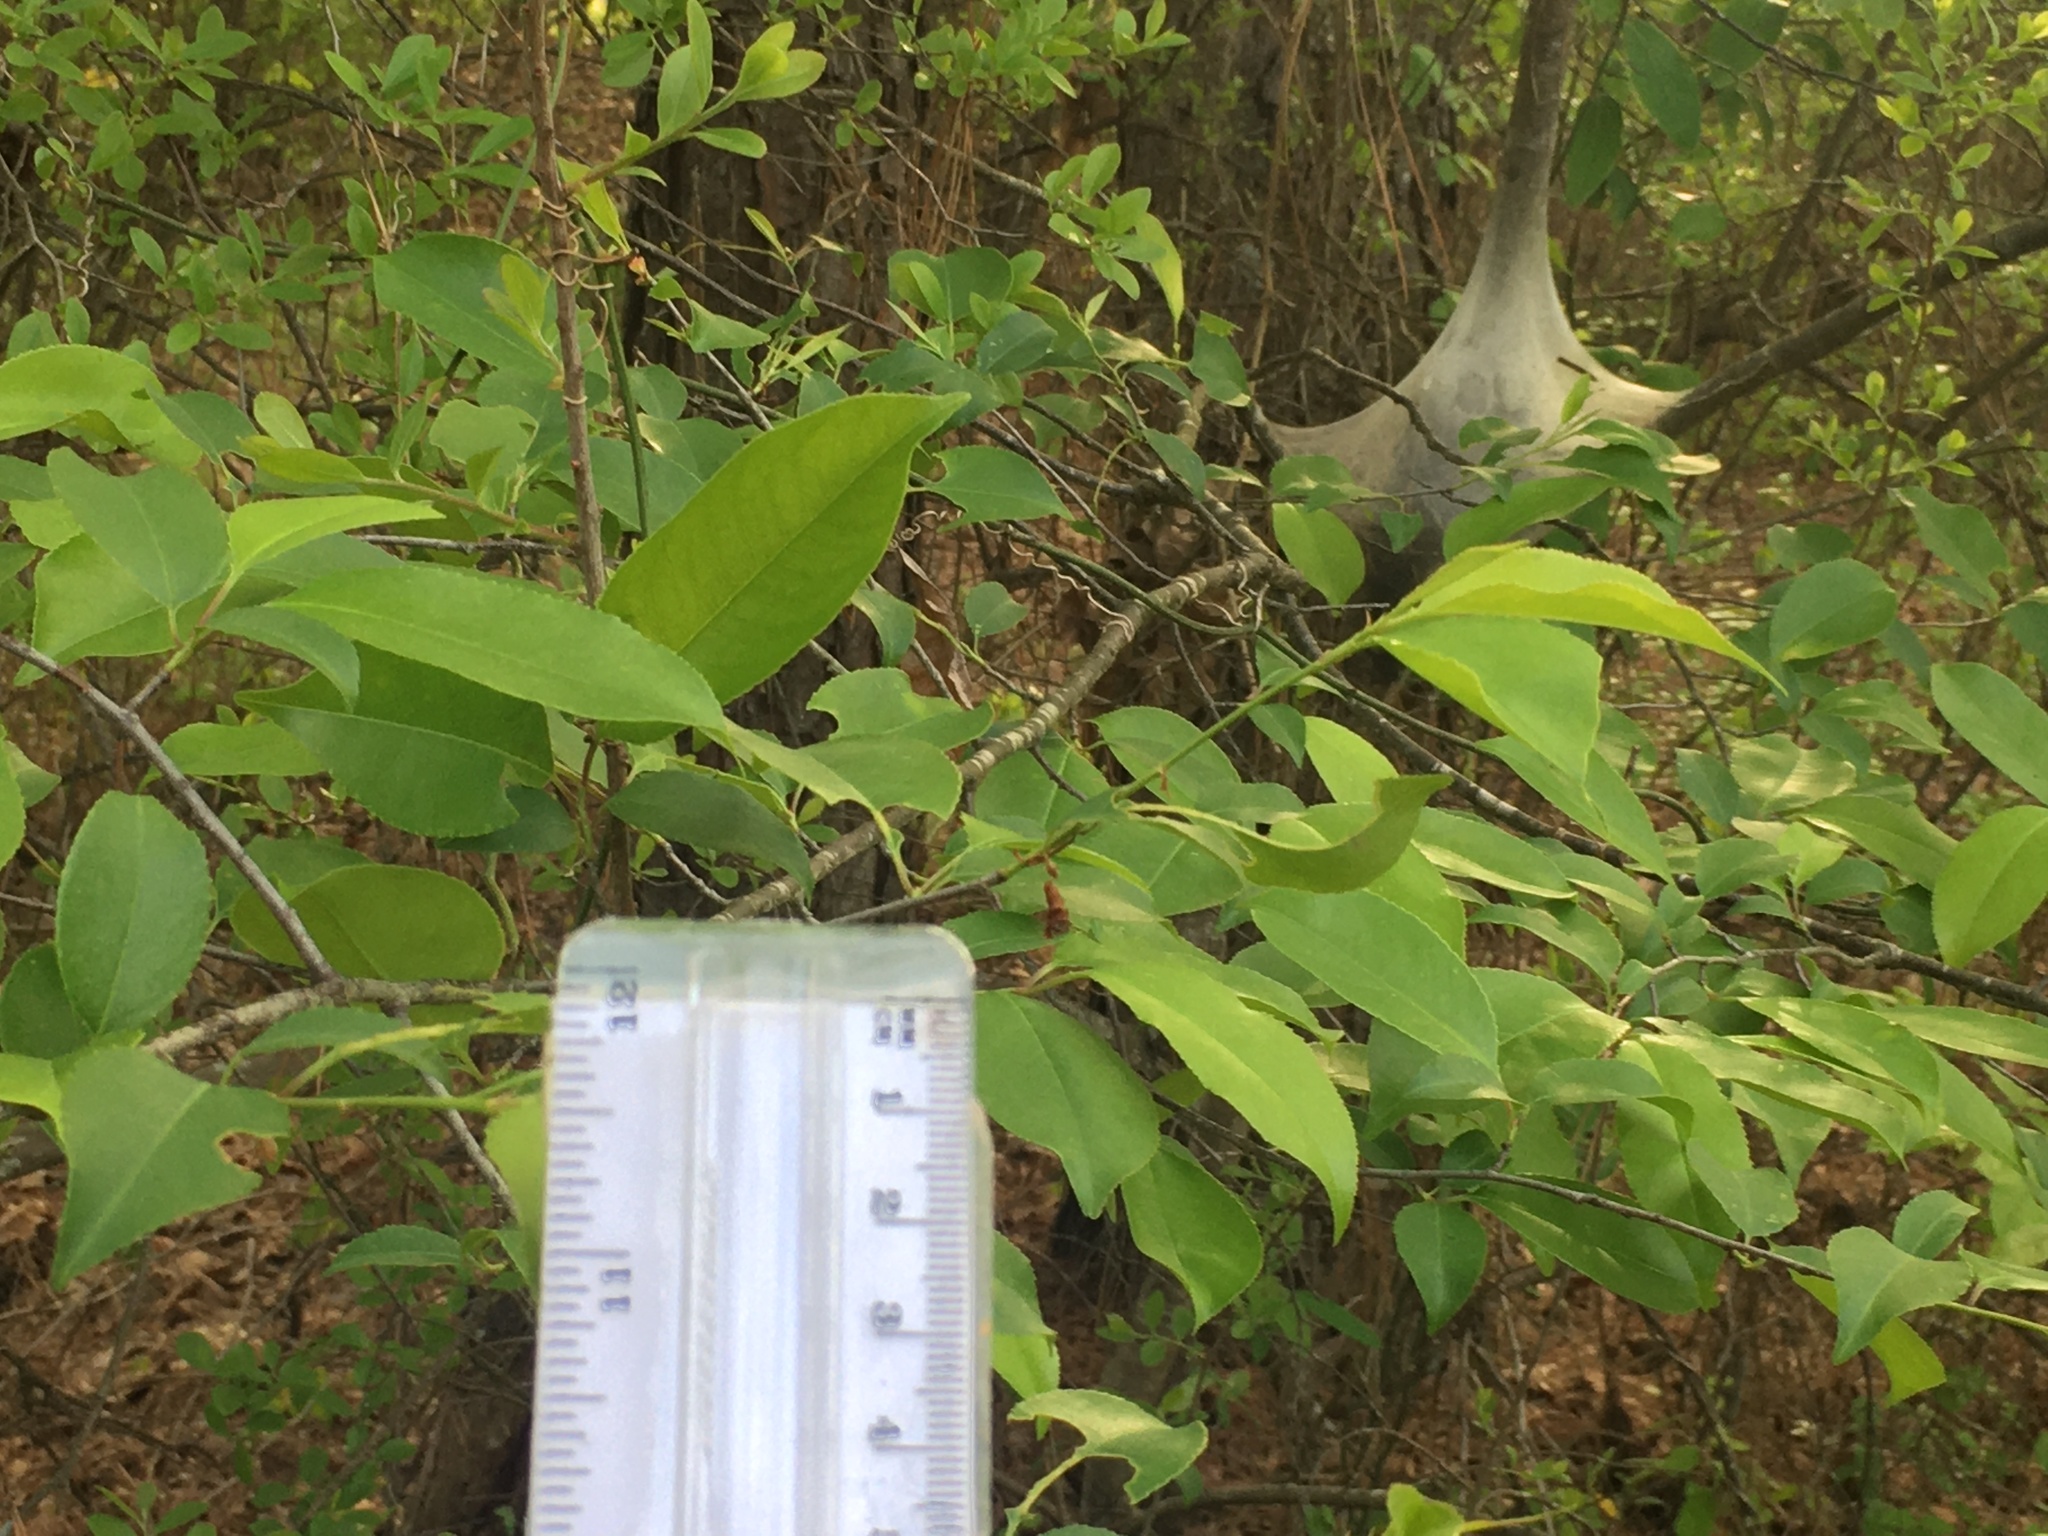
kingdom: Animalia
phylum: Arthropoda
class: Insecta
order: Lepidoptera
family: Lasiocampidae
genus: Malacosoma
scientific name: Malacosoma americana
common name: Eastern tent caterpillar moth
